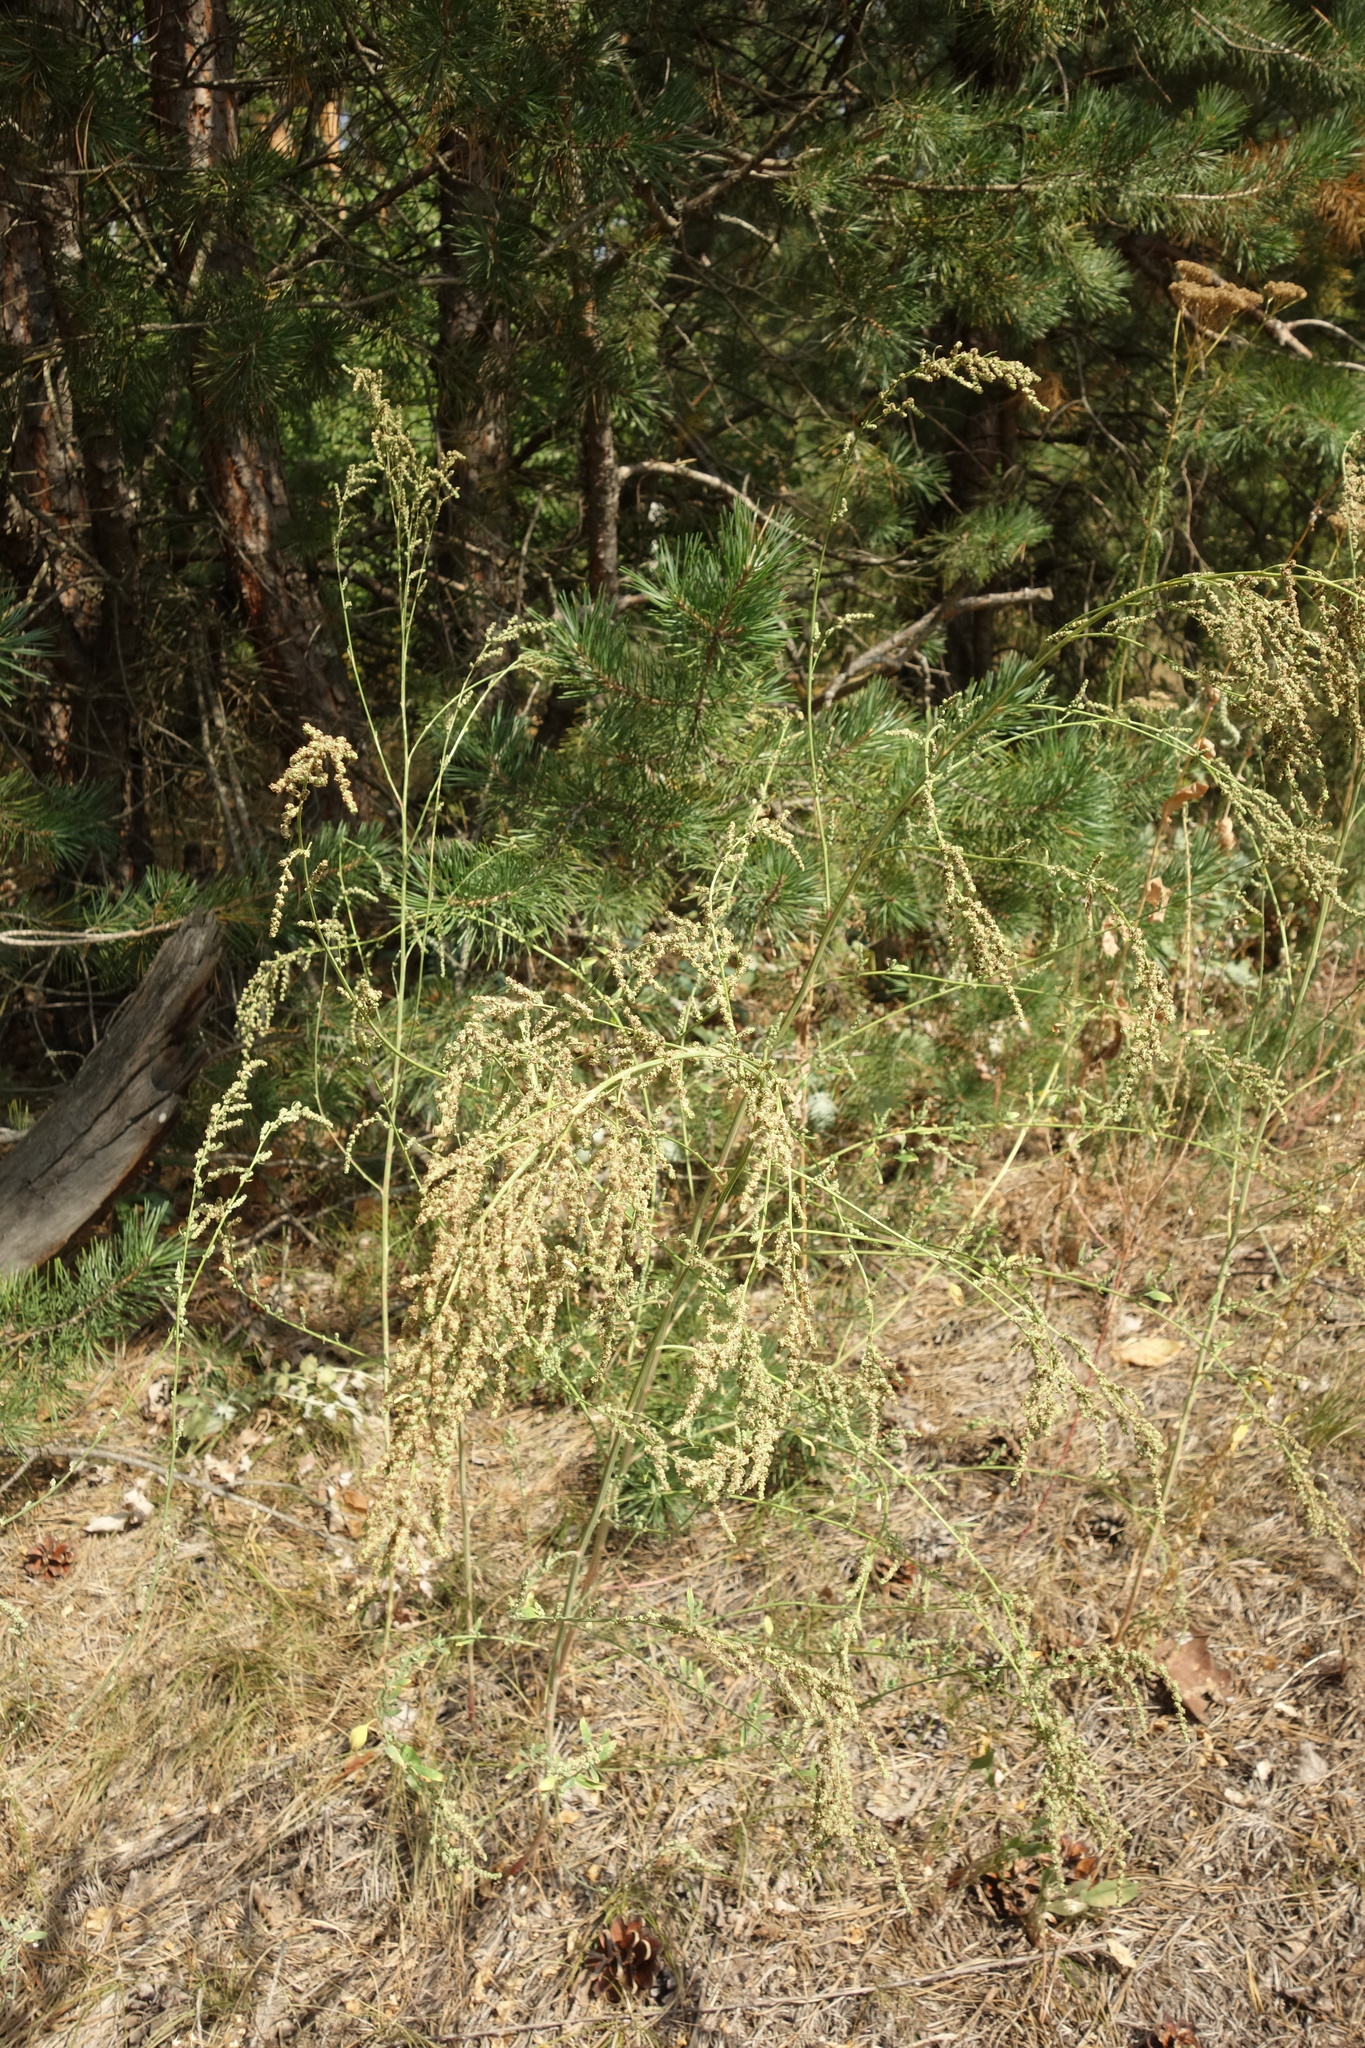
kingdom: Plantae
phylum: Tracheophyta
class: Magnoliopsida
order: Caryophyllales
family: Amaranthaceae
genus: Chenopodium
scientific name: Chenopodium album
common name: Fat-hen
